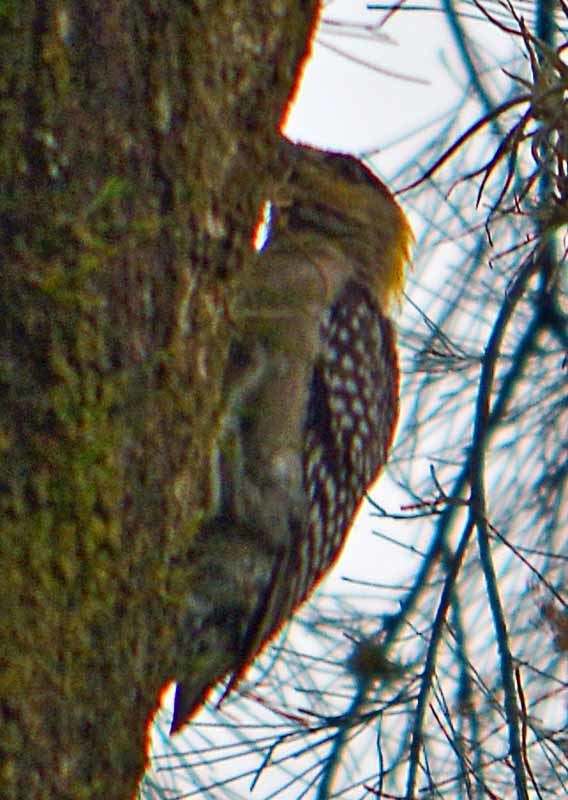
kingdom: Animalia
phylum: Chordata
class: Aves
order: Piciformes
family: Picidae
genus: Melanerpes
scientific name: Melanerpes chrysogenys
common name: Golden-cheeked woodpecker
